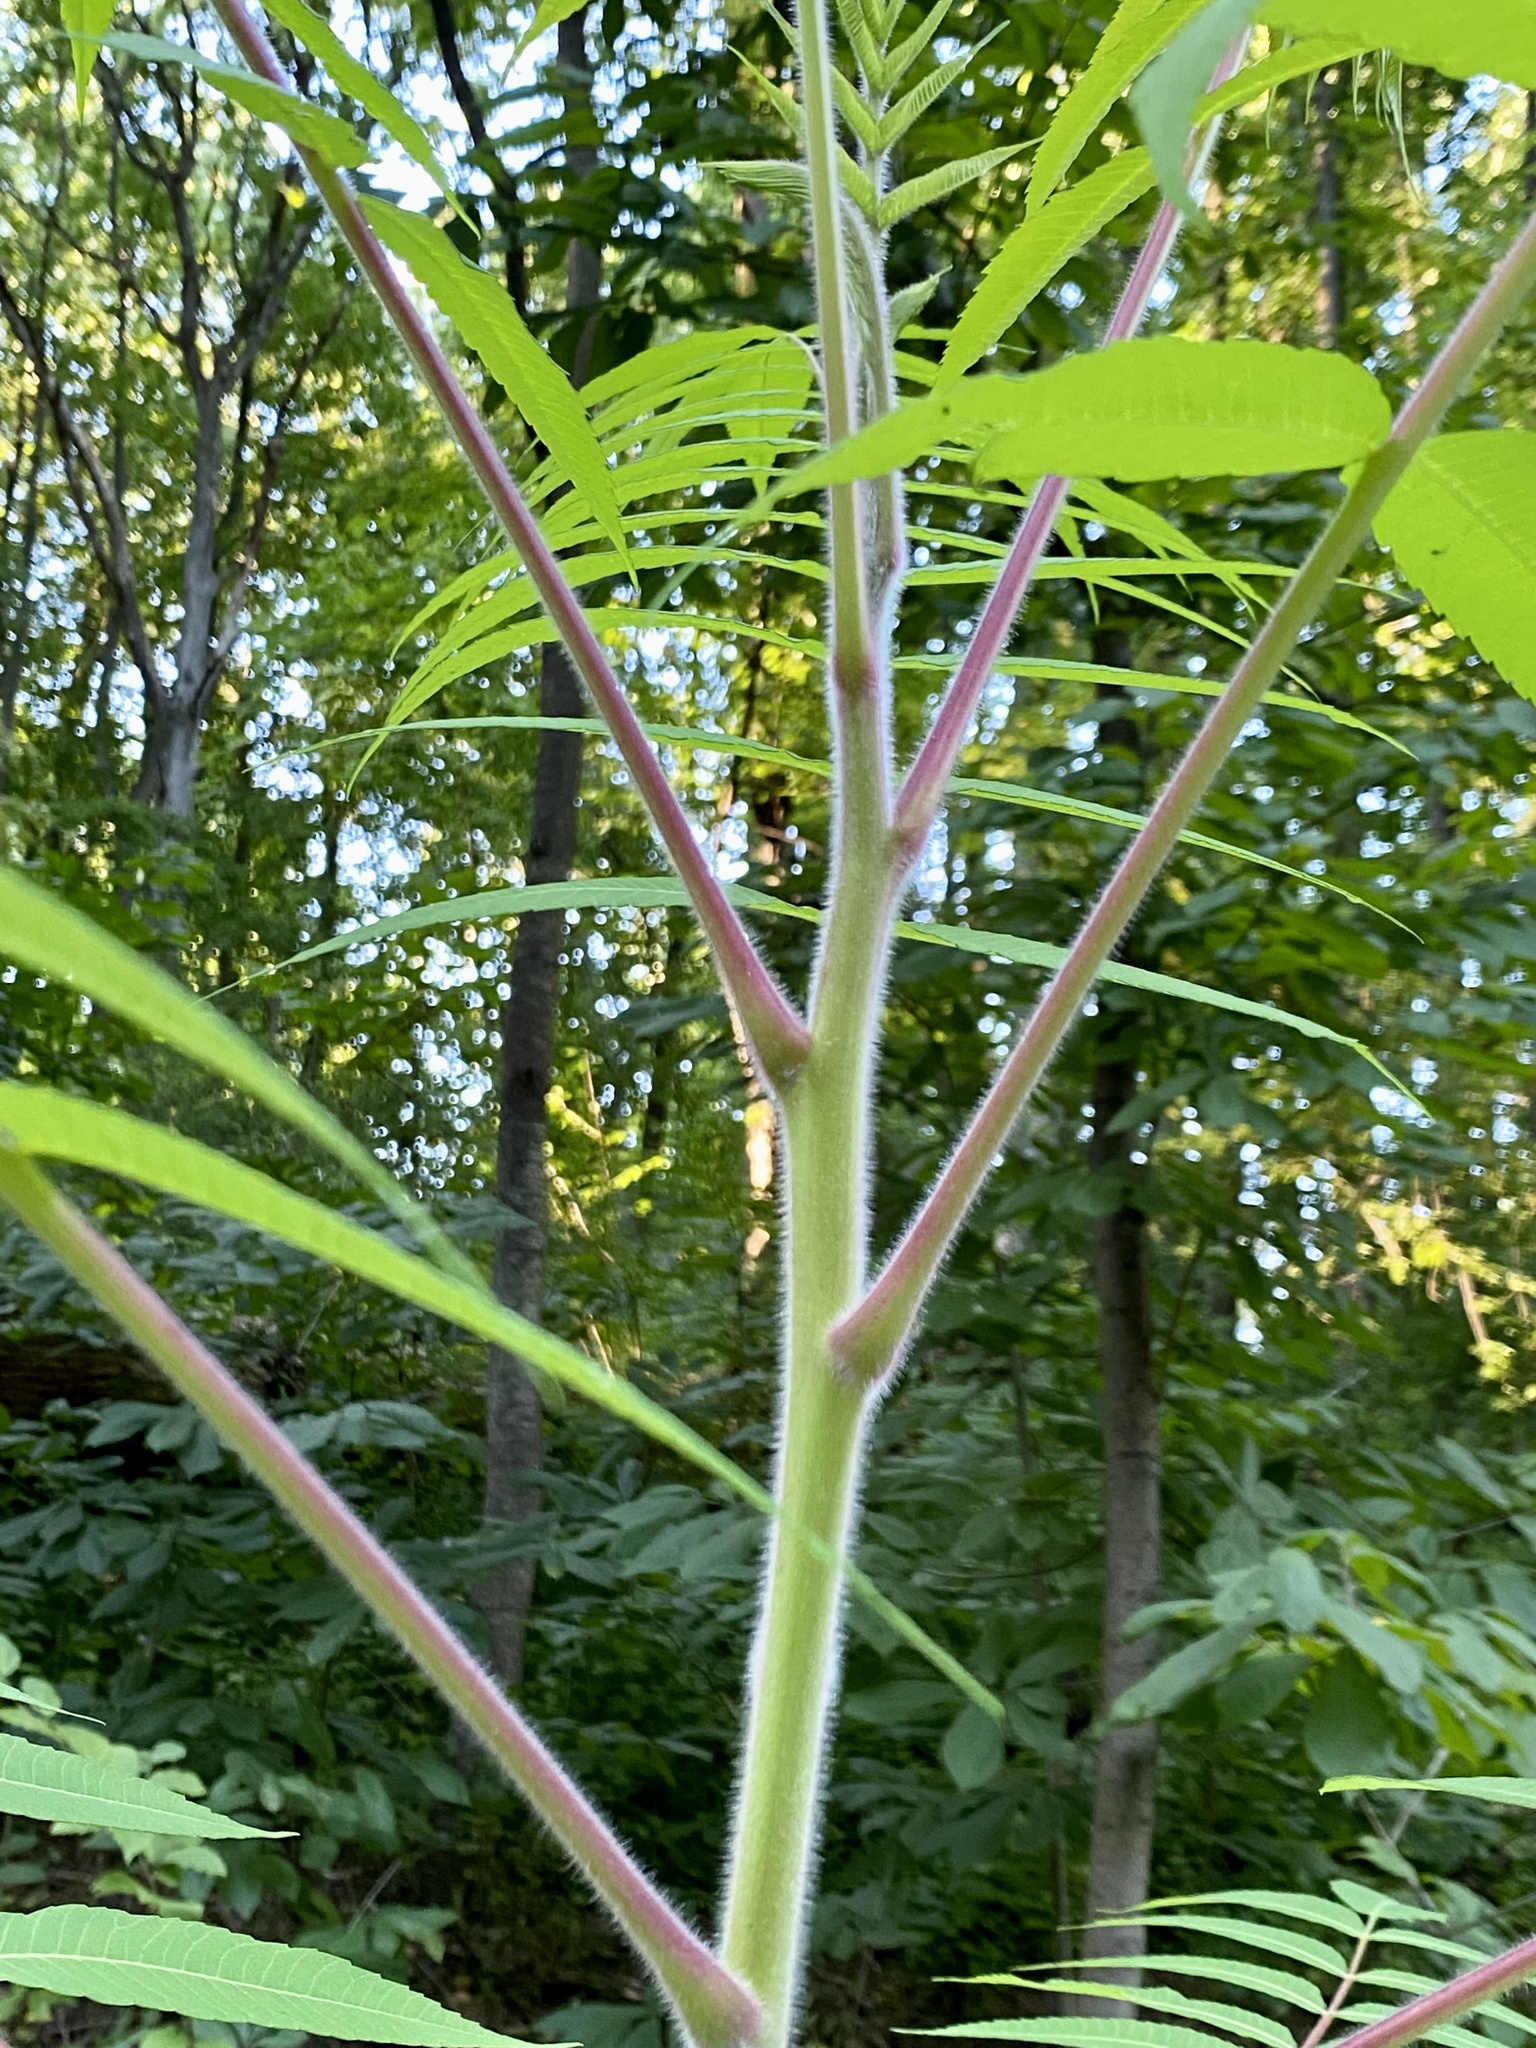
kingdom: Plantae
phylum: Tracheophyta
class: Magnoliopsida
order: Sapindales
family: Anacardiaceae
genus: Rhus
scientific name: Rhus typhina
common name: Staghorn sumac
